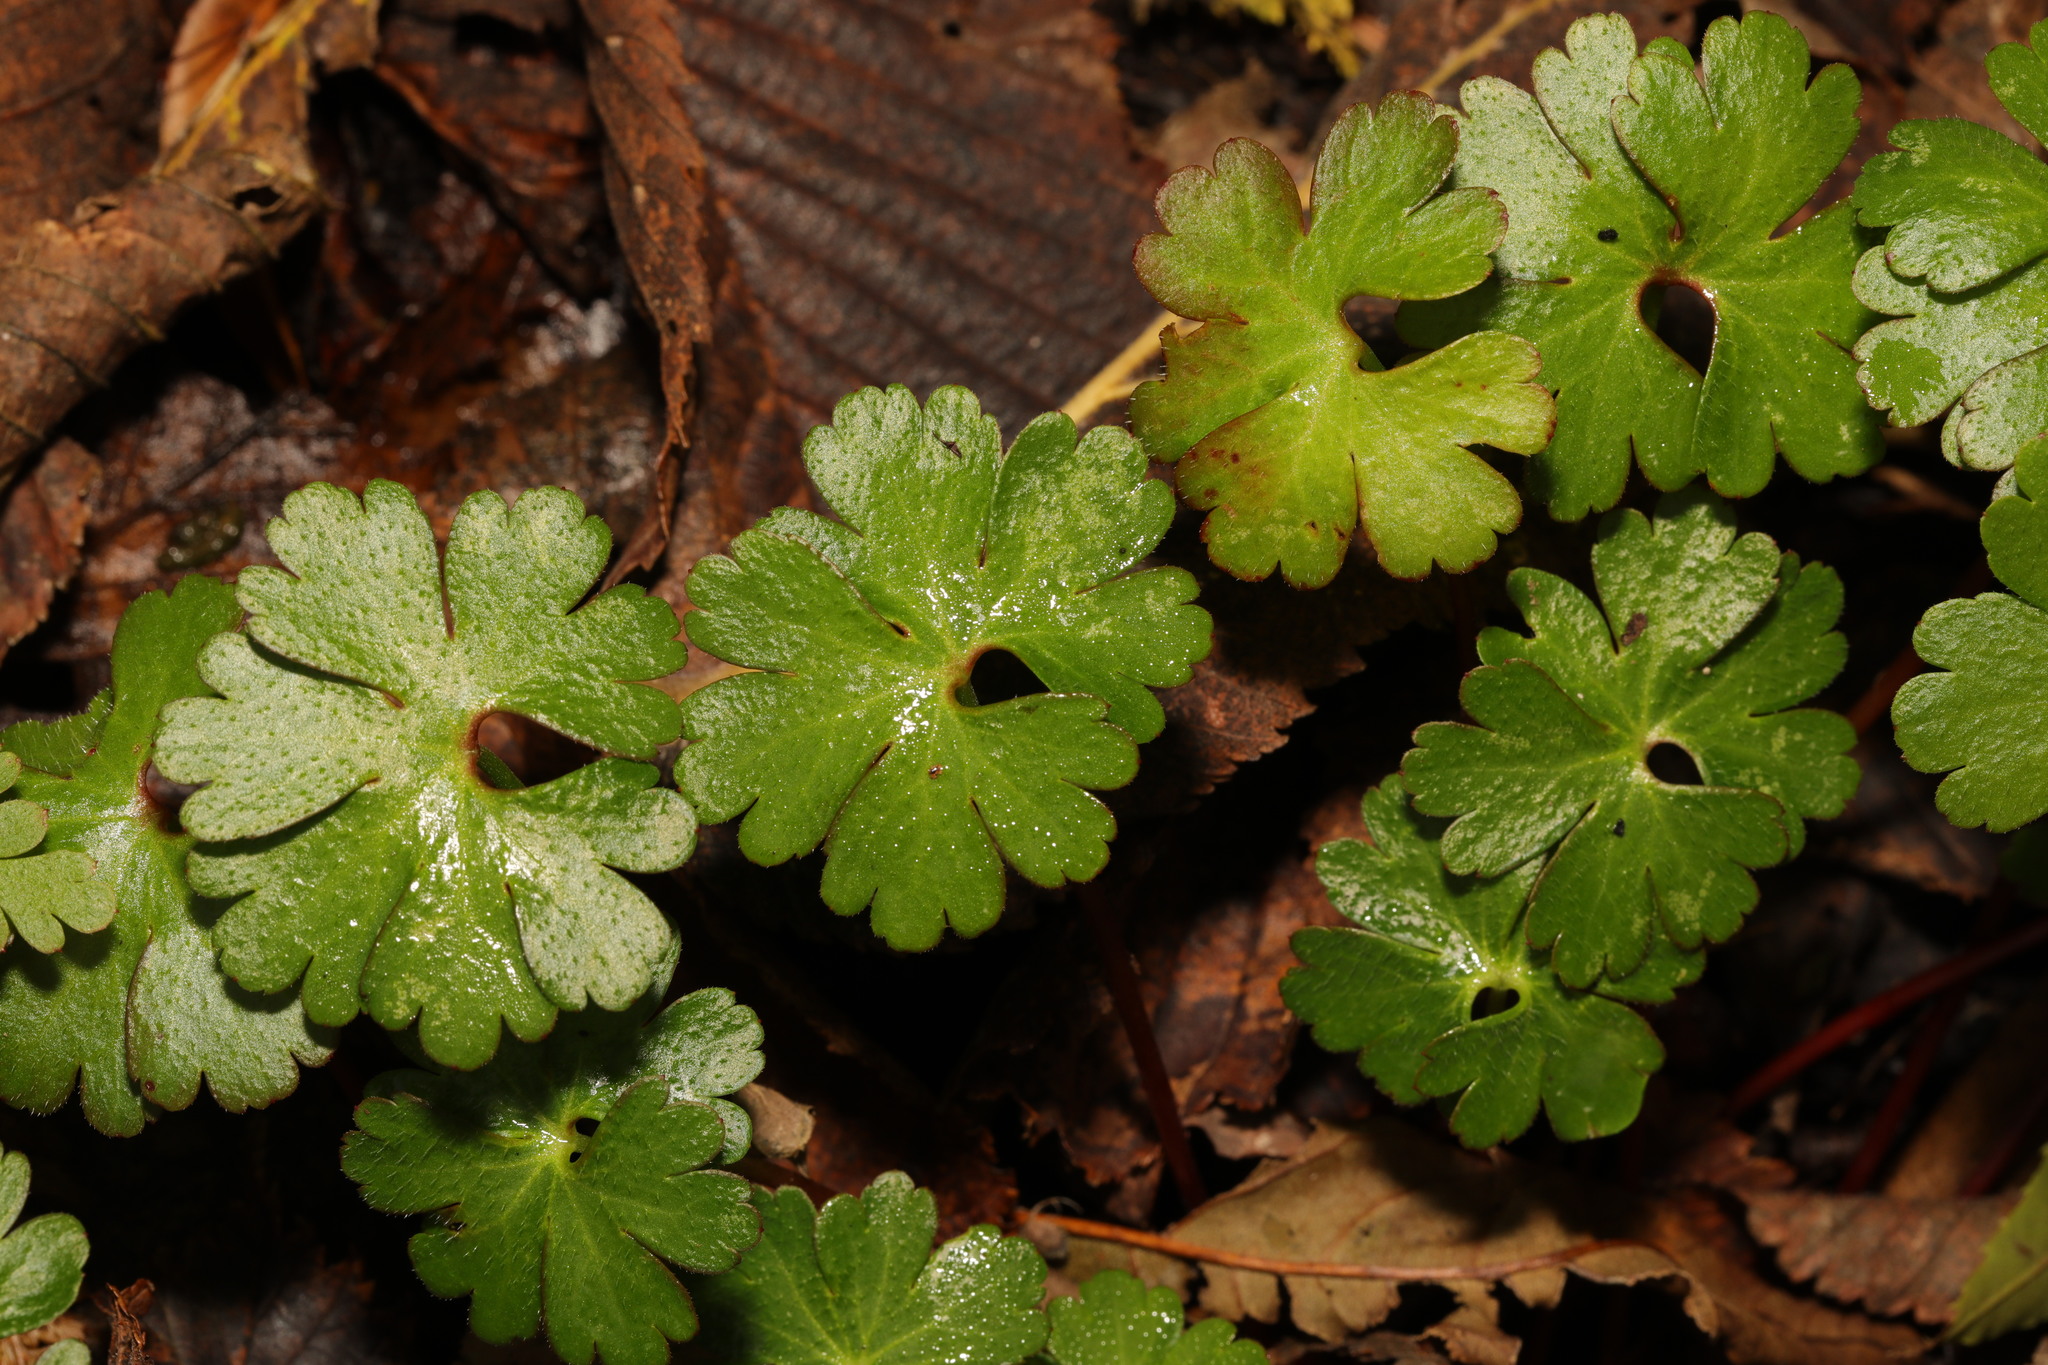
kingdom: Plantae
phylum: Tracheophyta
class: Magnoliopsida
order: Geraniales
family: Geraniaceae
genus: Geranium
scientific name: Geranium lucidum
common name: Shining crane's-bill
